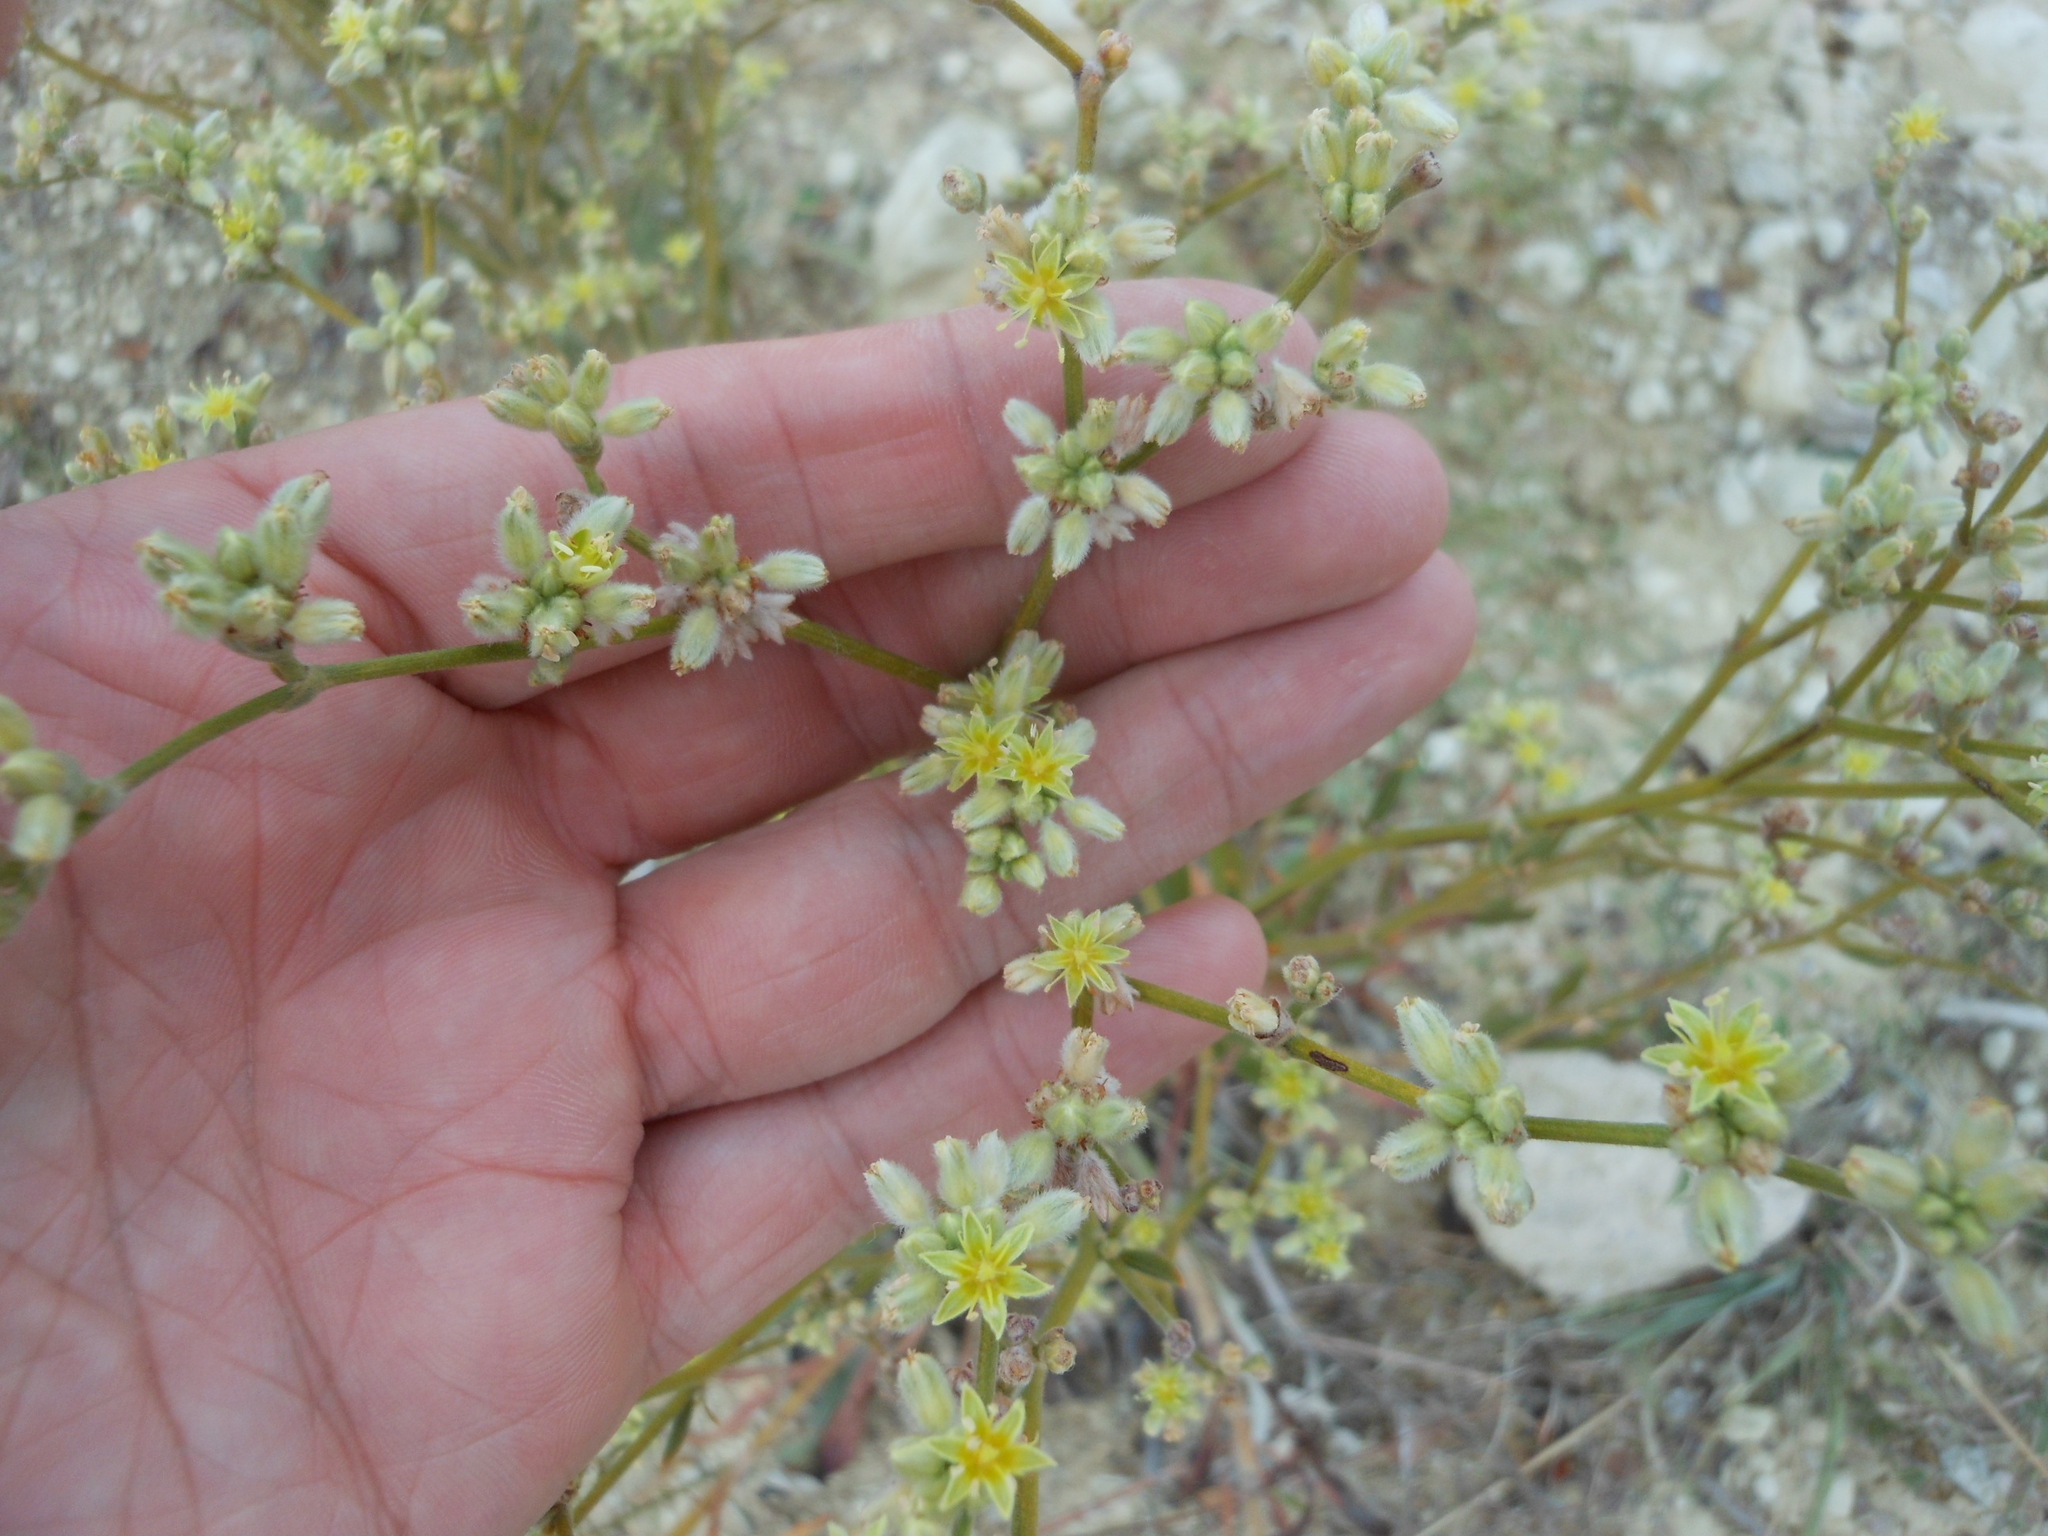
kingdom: Plantae
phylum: Tracheophyta
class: Magnoliopsida
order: Caryophyllales
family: Polygonaceae
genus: Eriogonum
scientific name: Eriogonum longifolium
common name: Longleaf wild buckwheat
